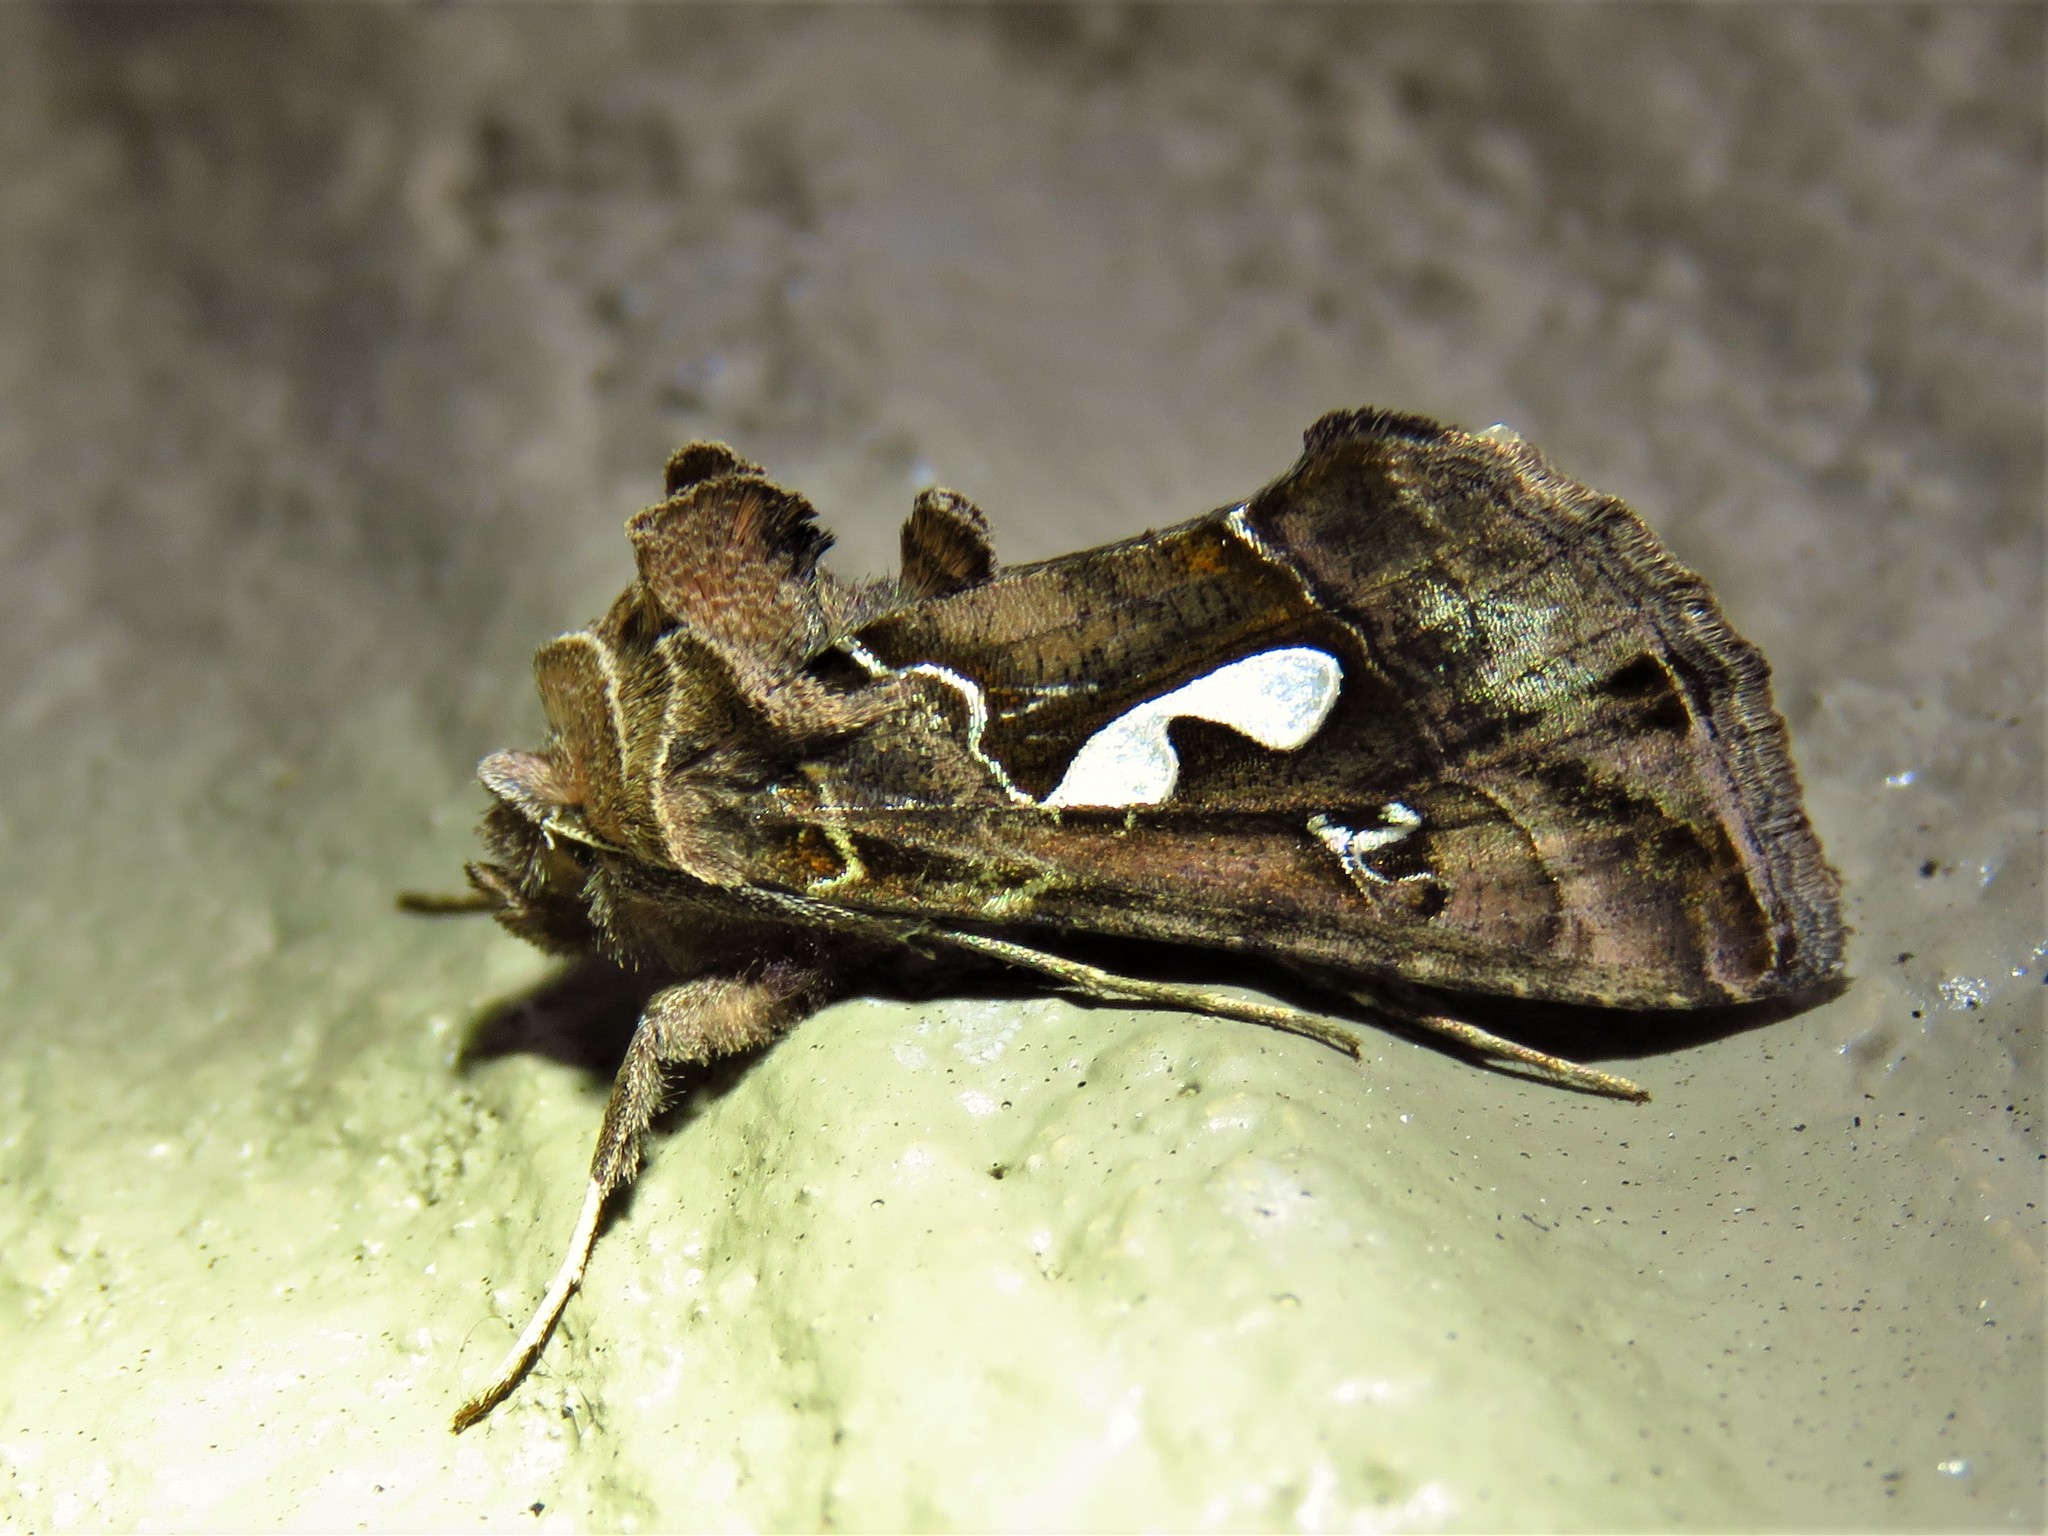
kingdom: Animalia
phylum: Arthropoda
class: Insecta
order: Lepidoptera
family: Noctuidae
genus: Megalographa
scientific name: Megalographa biloba
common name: Cutworm
